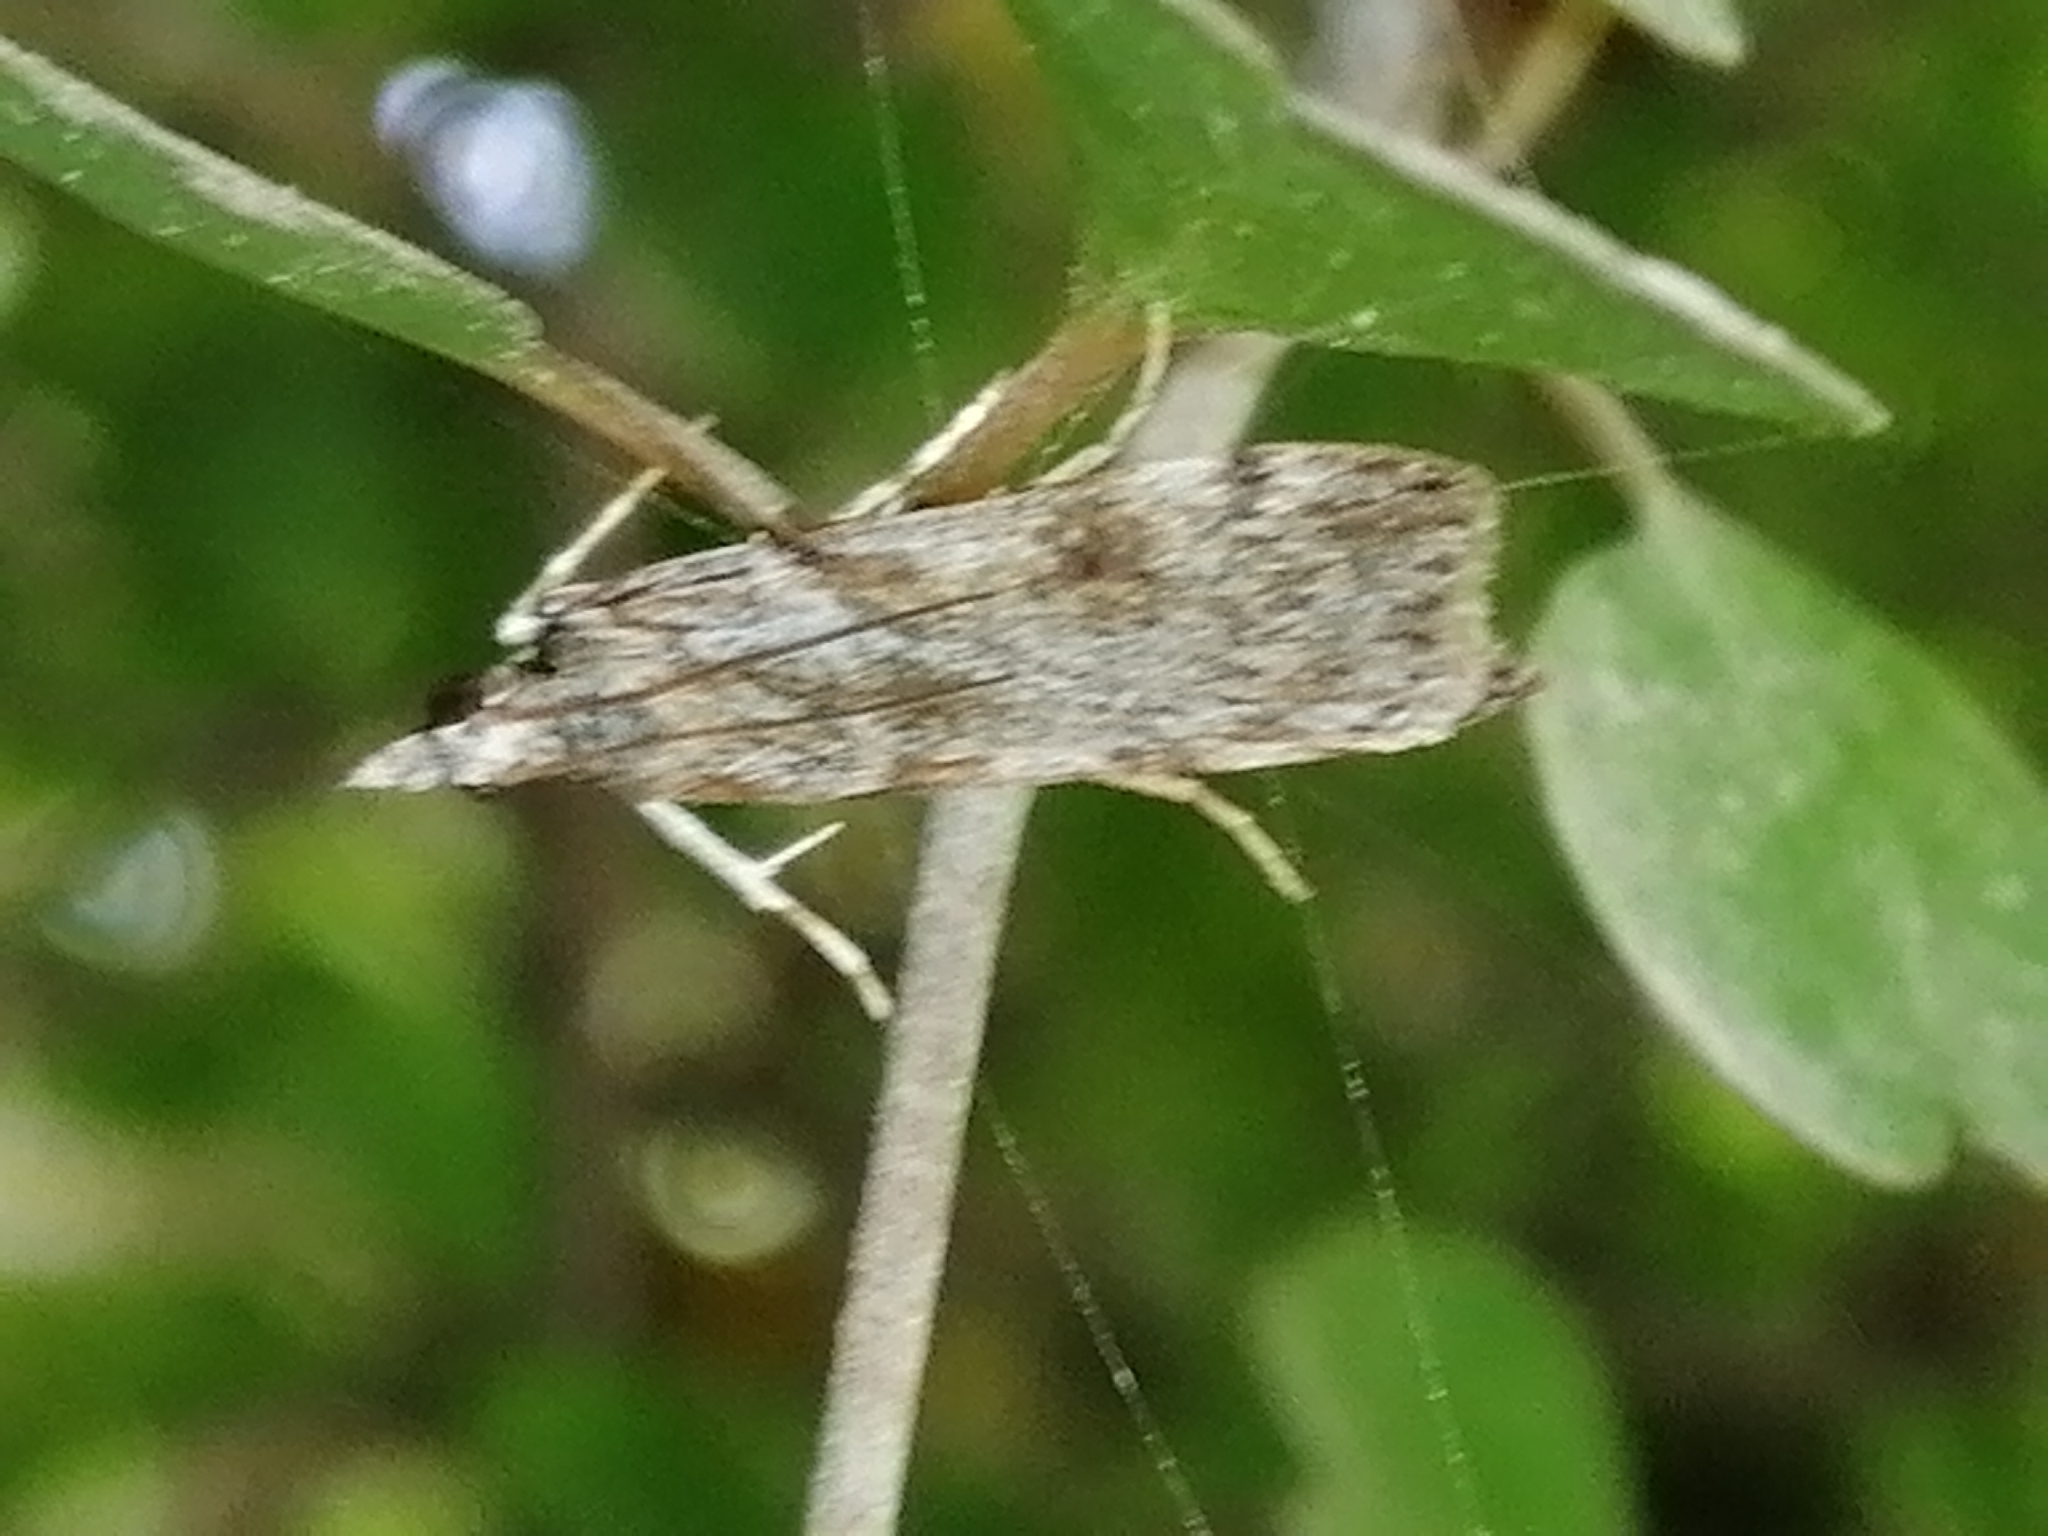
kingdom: Animalia
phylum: Arthropoda
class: Insecta
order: Lepidoptera
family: Crambidae
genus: Scoparia
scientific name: Scoparia halopis
